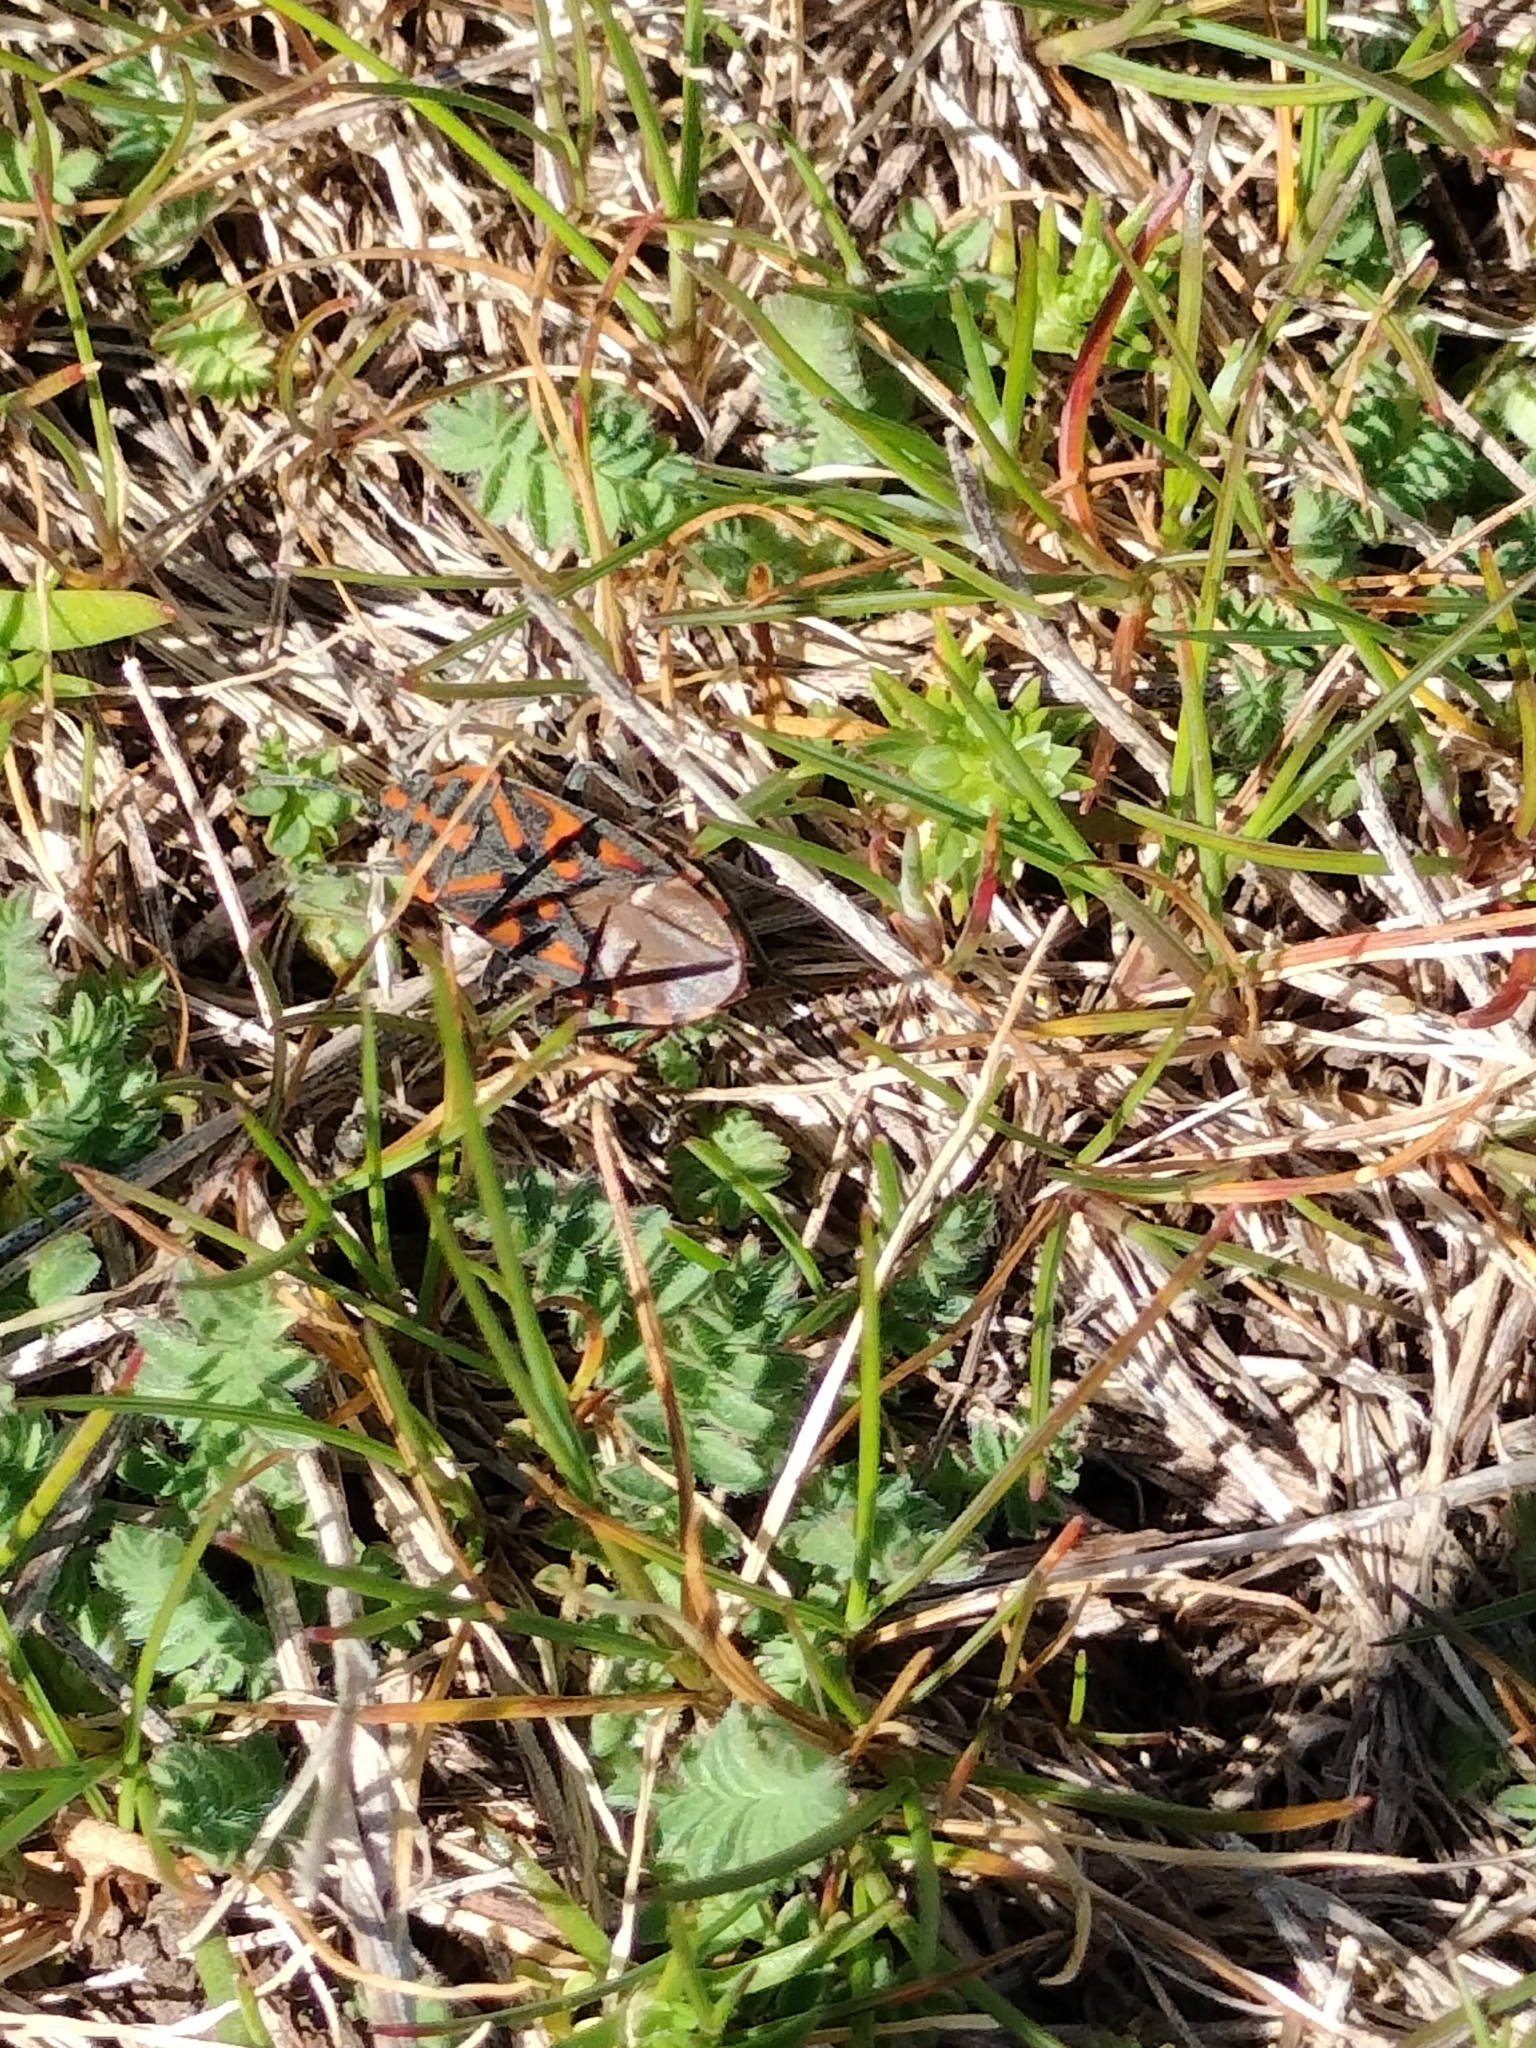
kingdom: Animalia
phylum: Arthropoda
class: Insecta
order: Hemiptera
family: Lygaeidae
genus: Spilostethus
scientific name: Spilostethus saxatilis
